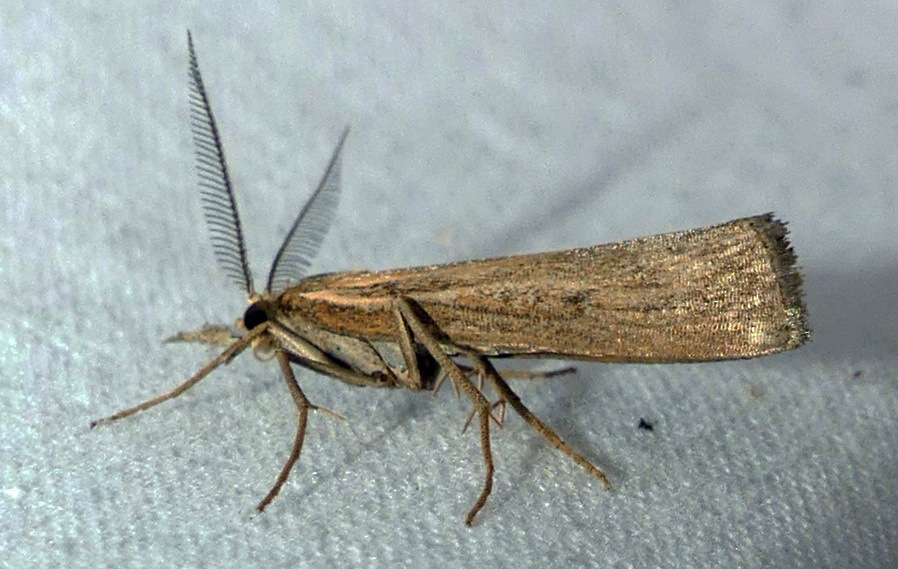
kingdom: Animalia
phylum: Arthropoda
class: Insecta
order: Lepidoptera
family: Crambidae
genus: Thaumatopsis
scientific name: Thaumatopsis pexellus
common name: Woolly grass-veneer moth
